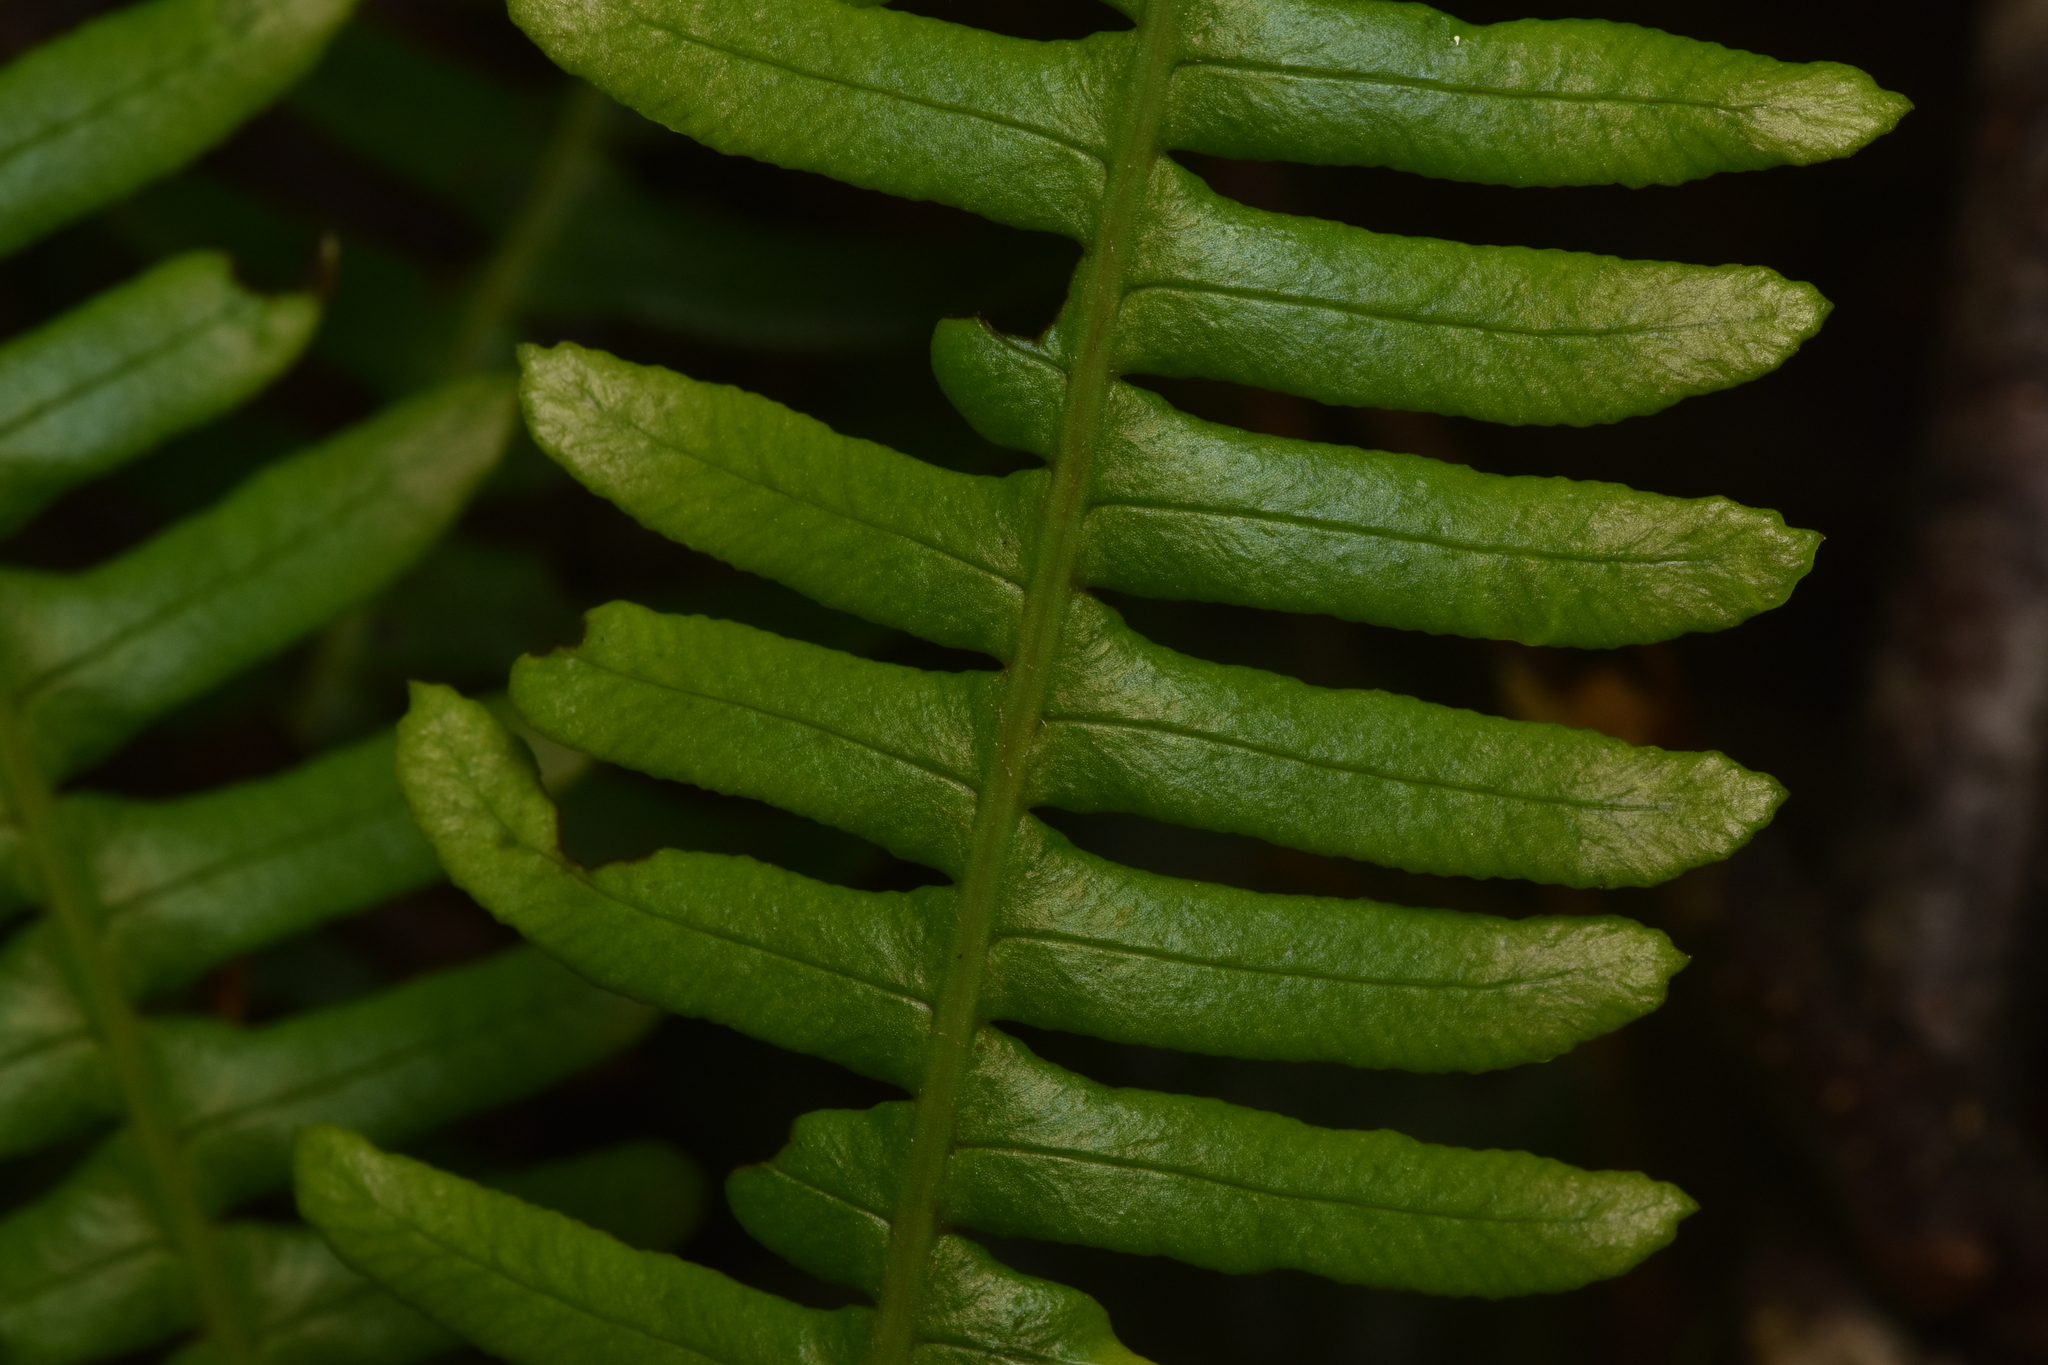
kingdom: Plantae
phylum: Tracheophyta
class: Polypodiopsida
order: Polypodiales
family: Blechnaceae
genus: Struthiopteris
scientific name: Struthiopteris spicant
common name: Deer fern
